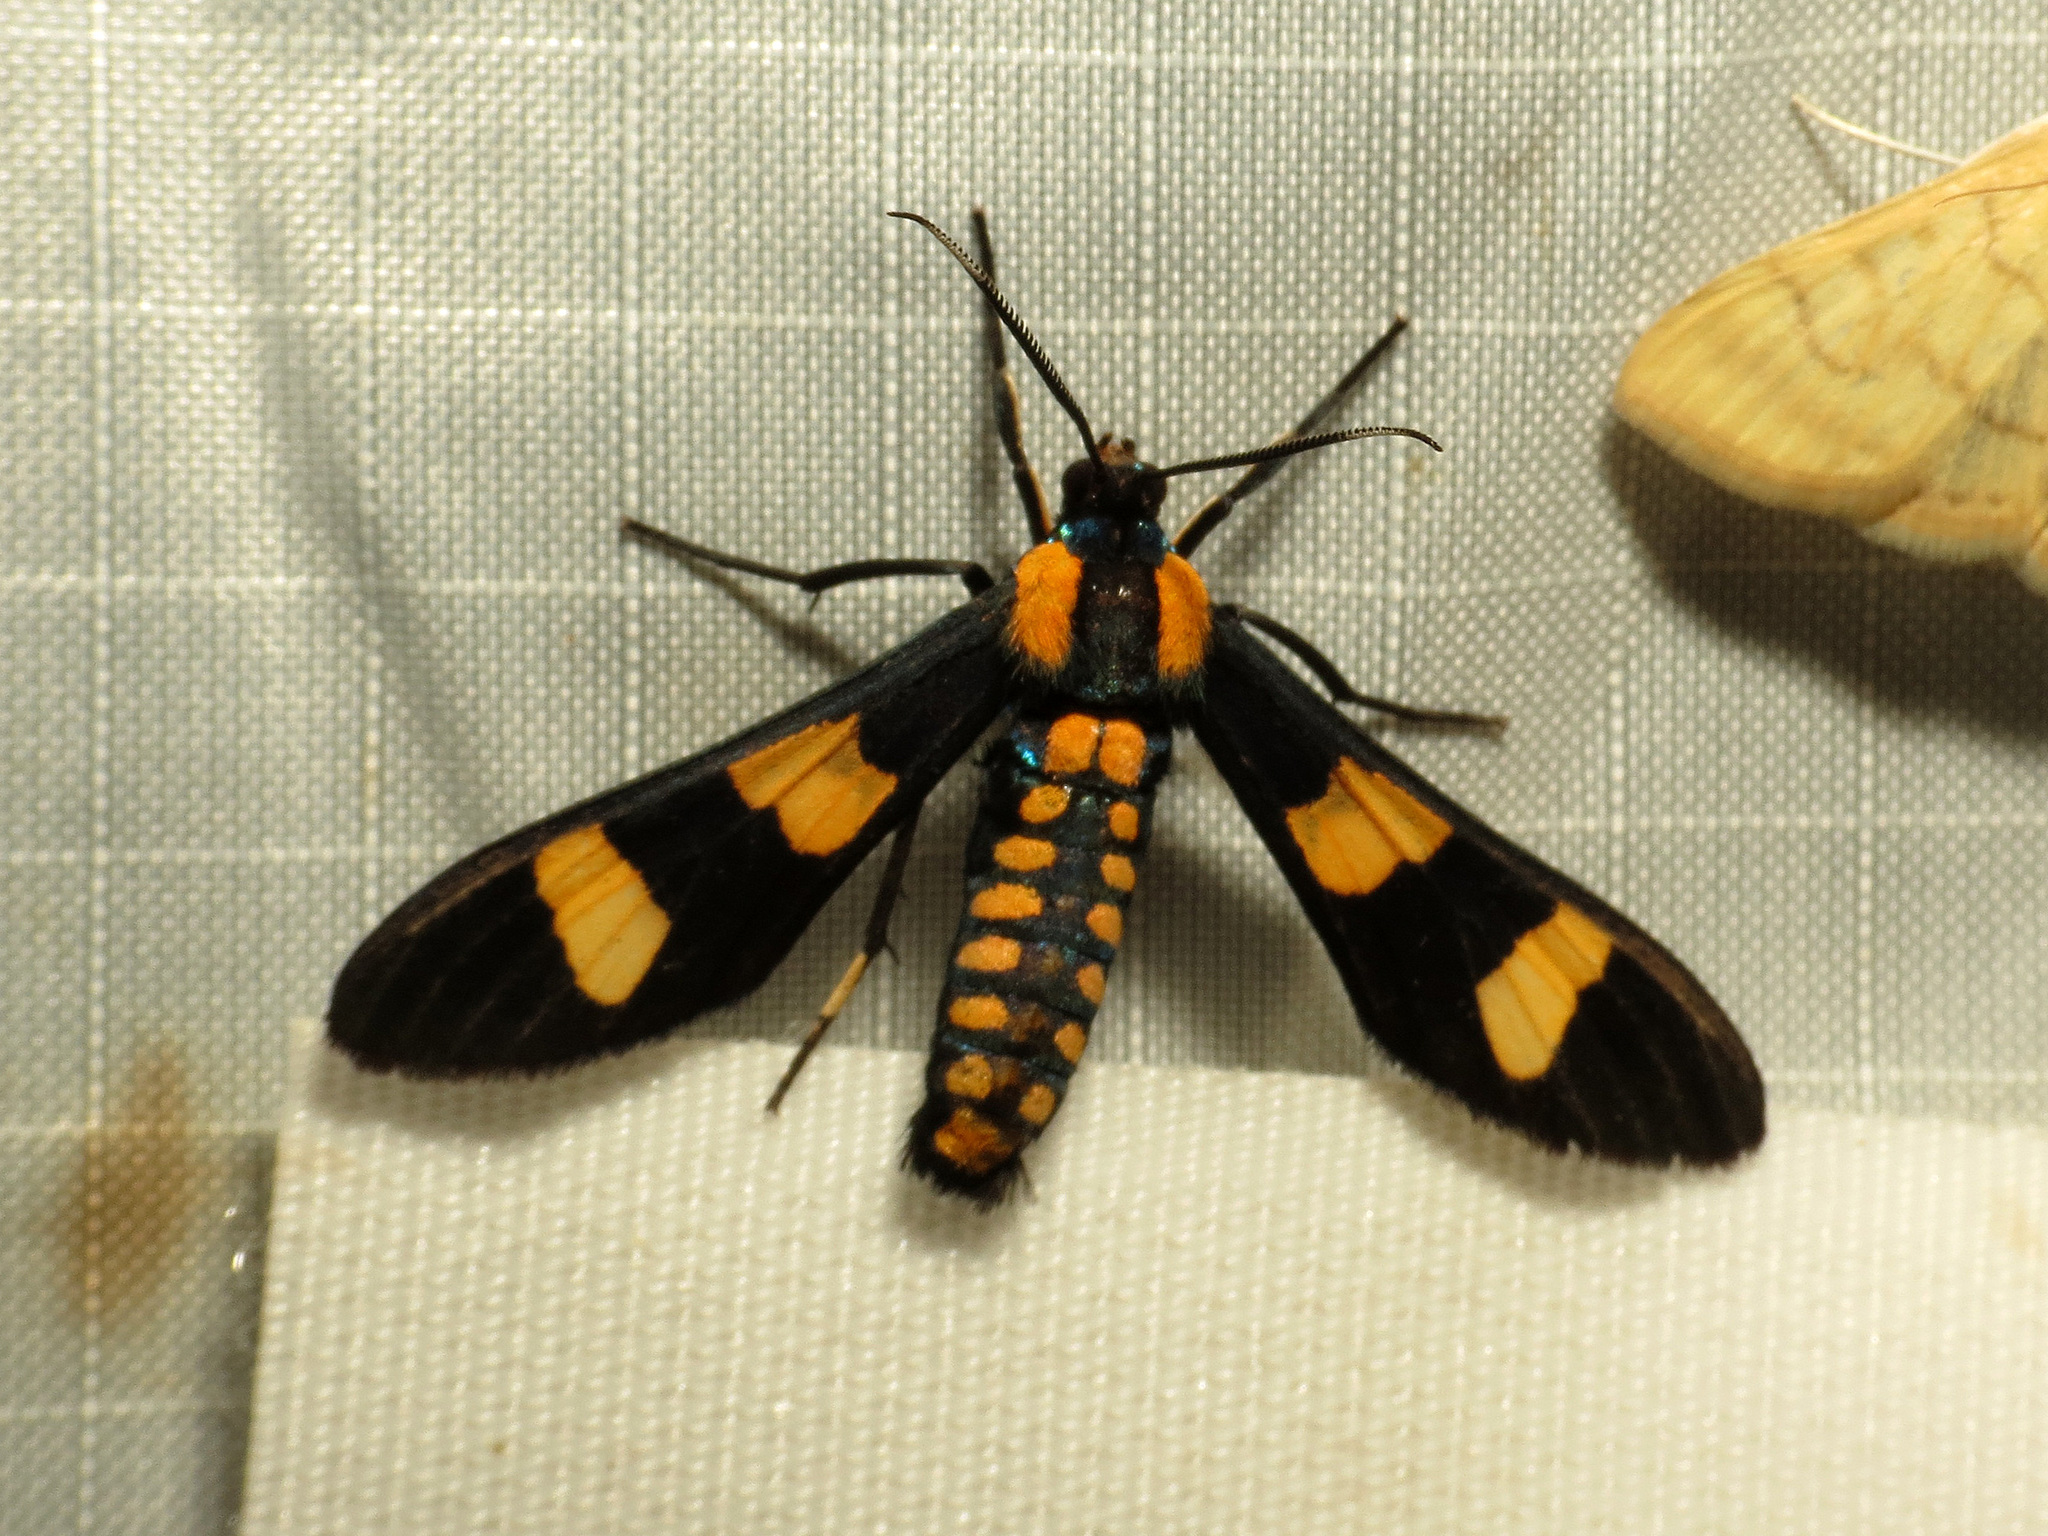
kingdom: Animalia
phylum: Arthropoda
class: Insecta
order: Lepidoptera
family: Erebidae
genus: Phoenicoprocta
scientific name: Phoenicoprocta hampsonii
